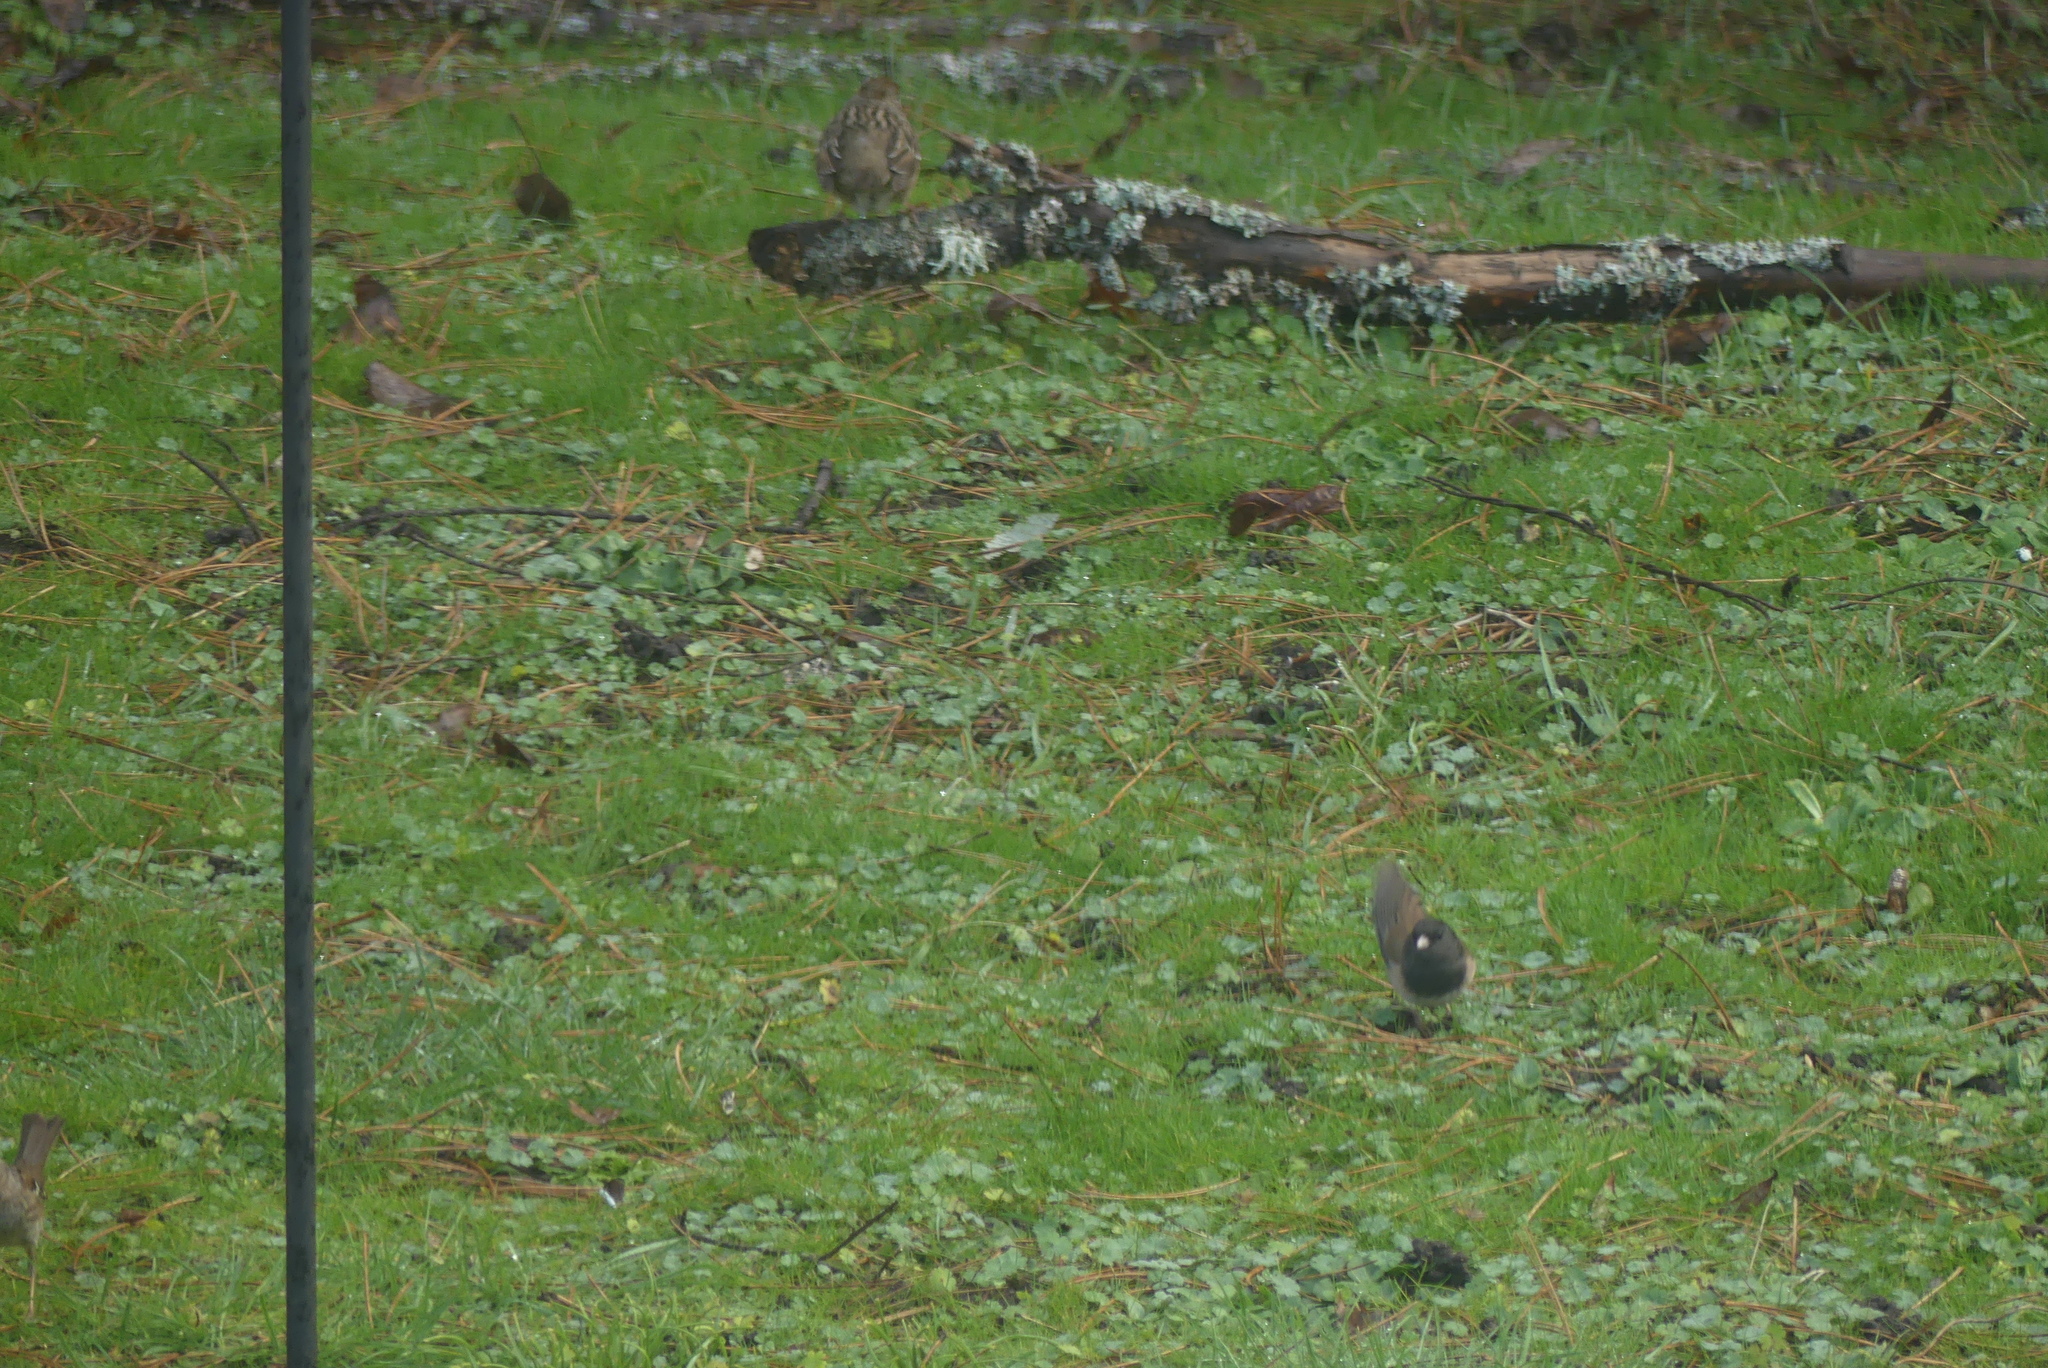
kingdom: Animalia
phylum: Chordata
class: Aves
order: Passeriformes
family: Passerellidae
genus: Junco
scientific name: Junco hyemalis
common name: Dark-eyed junco
